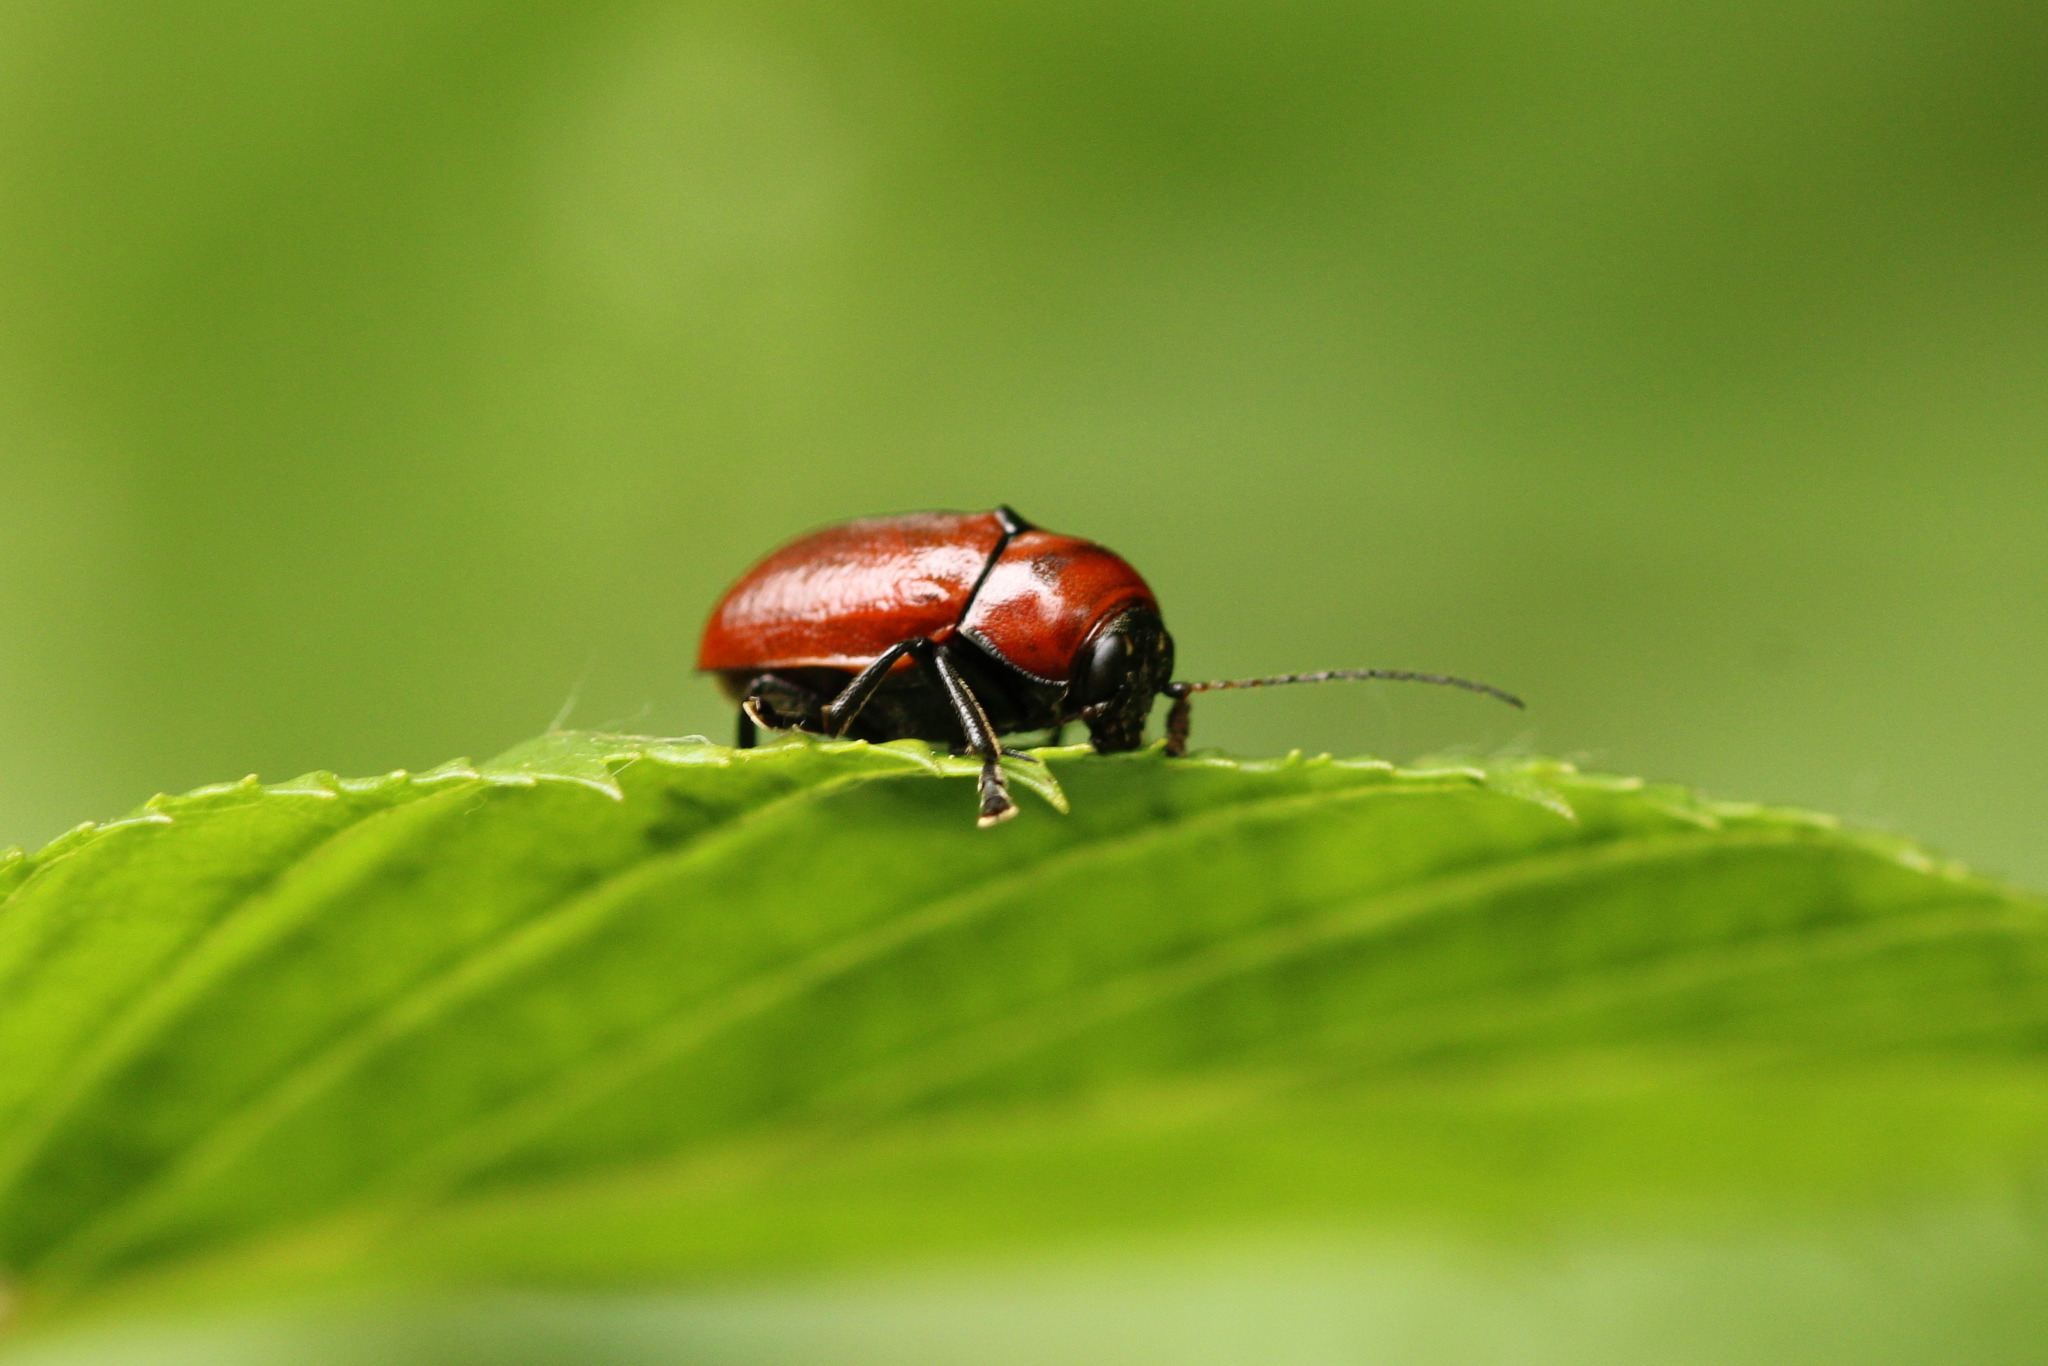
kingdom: Animalia
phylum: Arthropoda
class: Insecta
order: Coleoptera
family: Chrysomelidae
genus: Cryptocephalus
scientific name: Cryptocephalus coryli
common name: Hazel pot beetle
